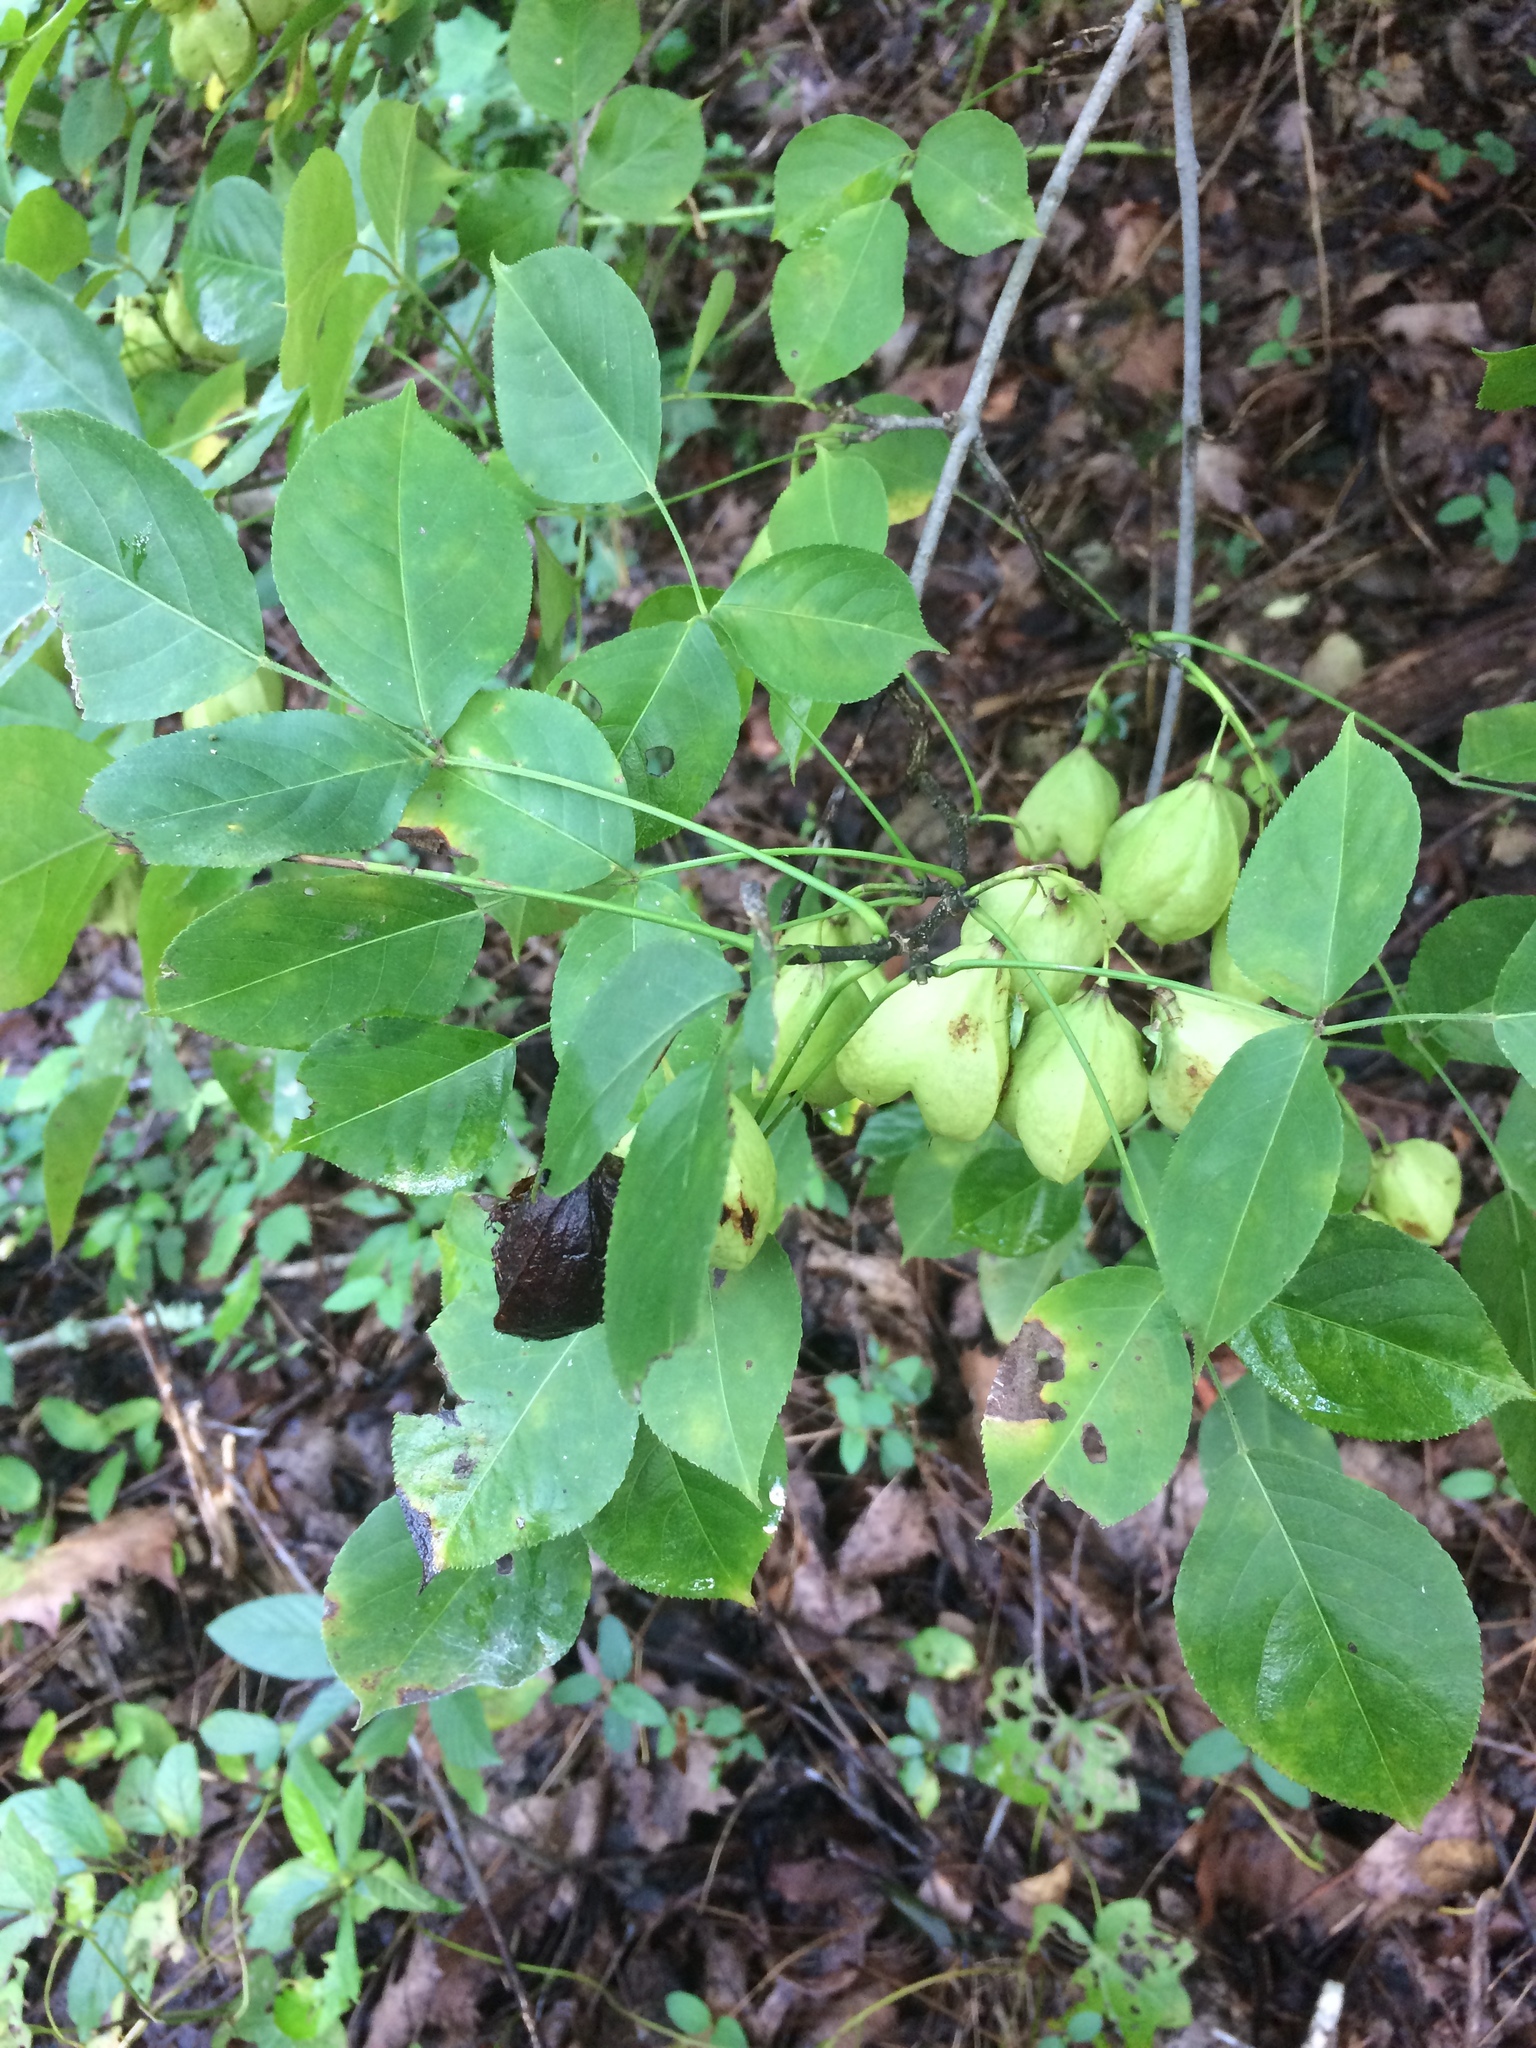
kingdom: Plantae
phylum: Tracheophyta
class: Magnoliopsida
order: Crossosomatales
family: Staphyleaceae
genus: Staphylea
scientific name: Staphylea trifolia
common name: American bladdernut
